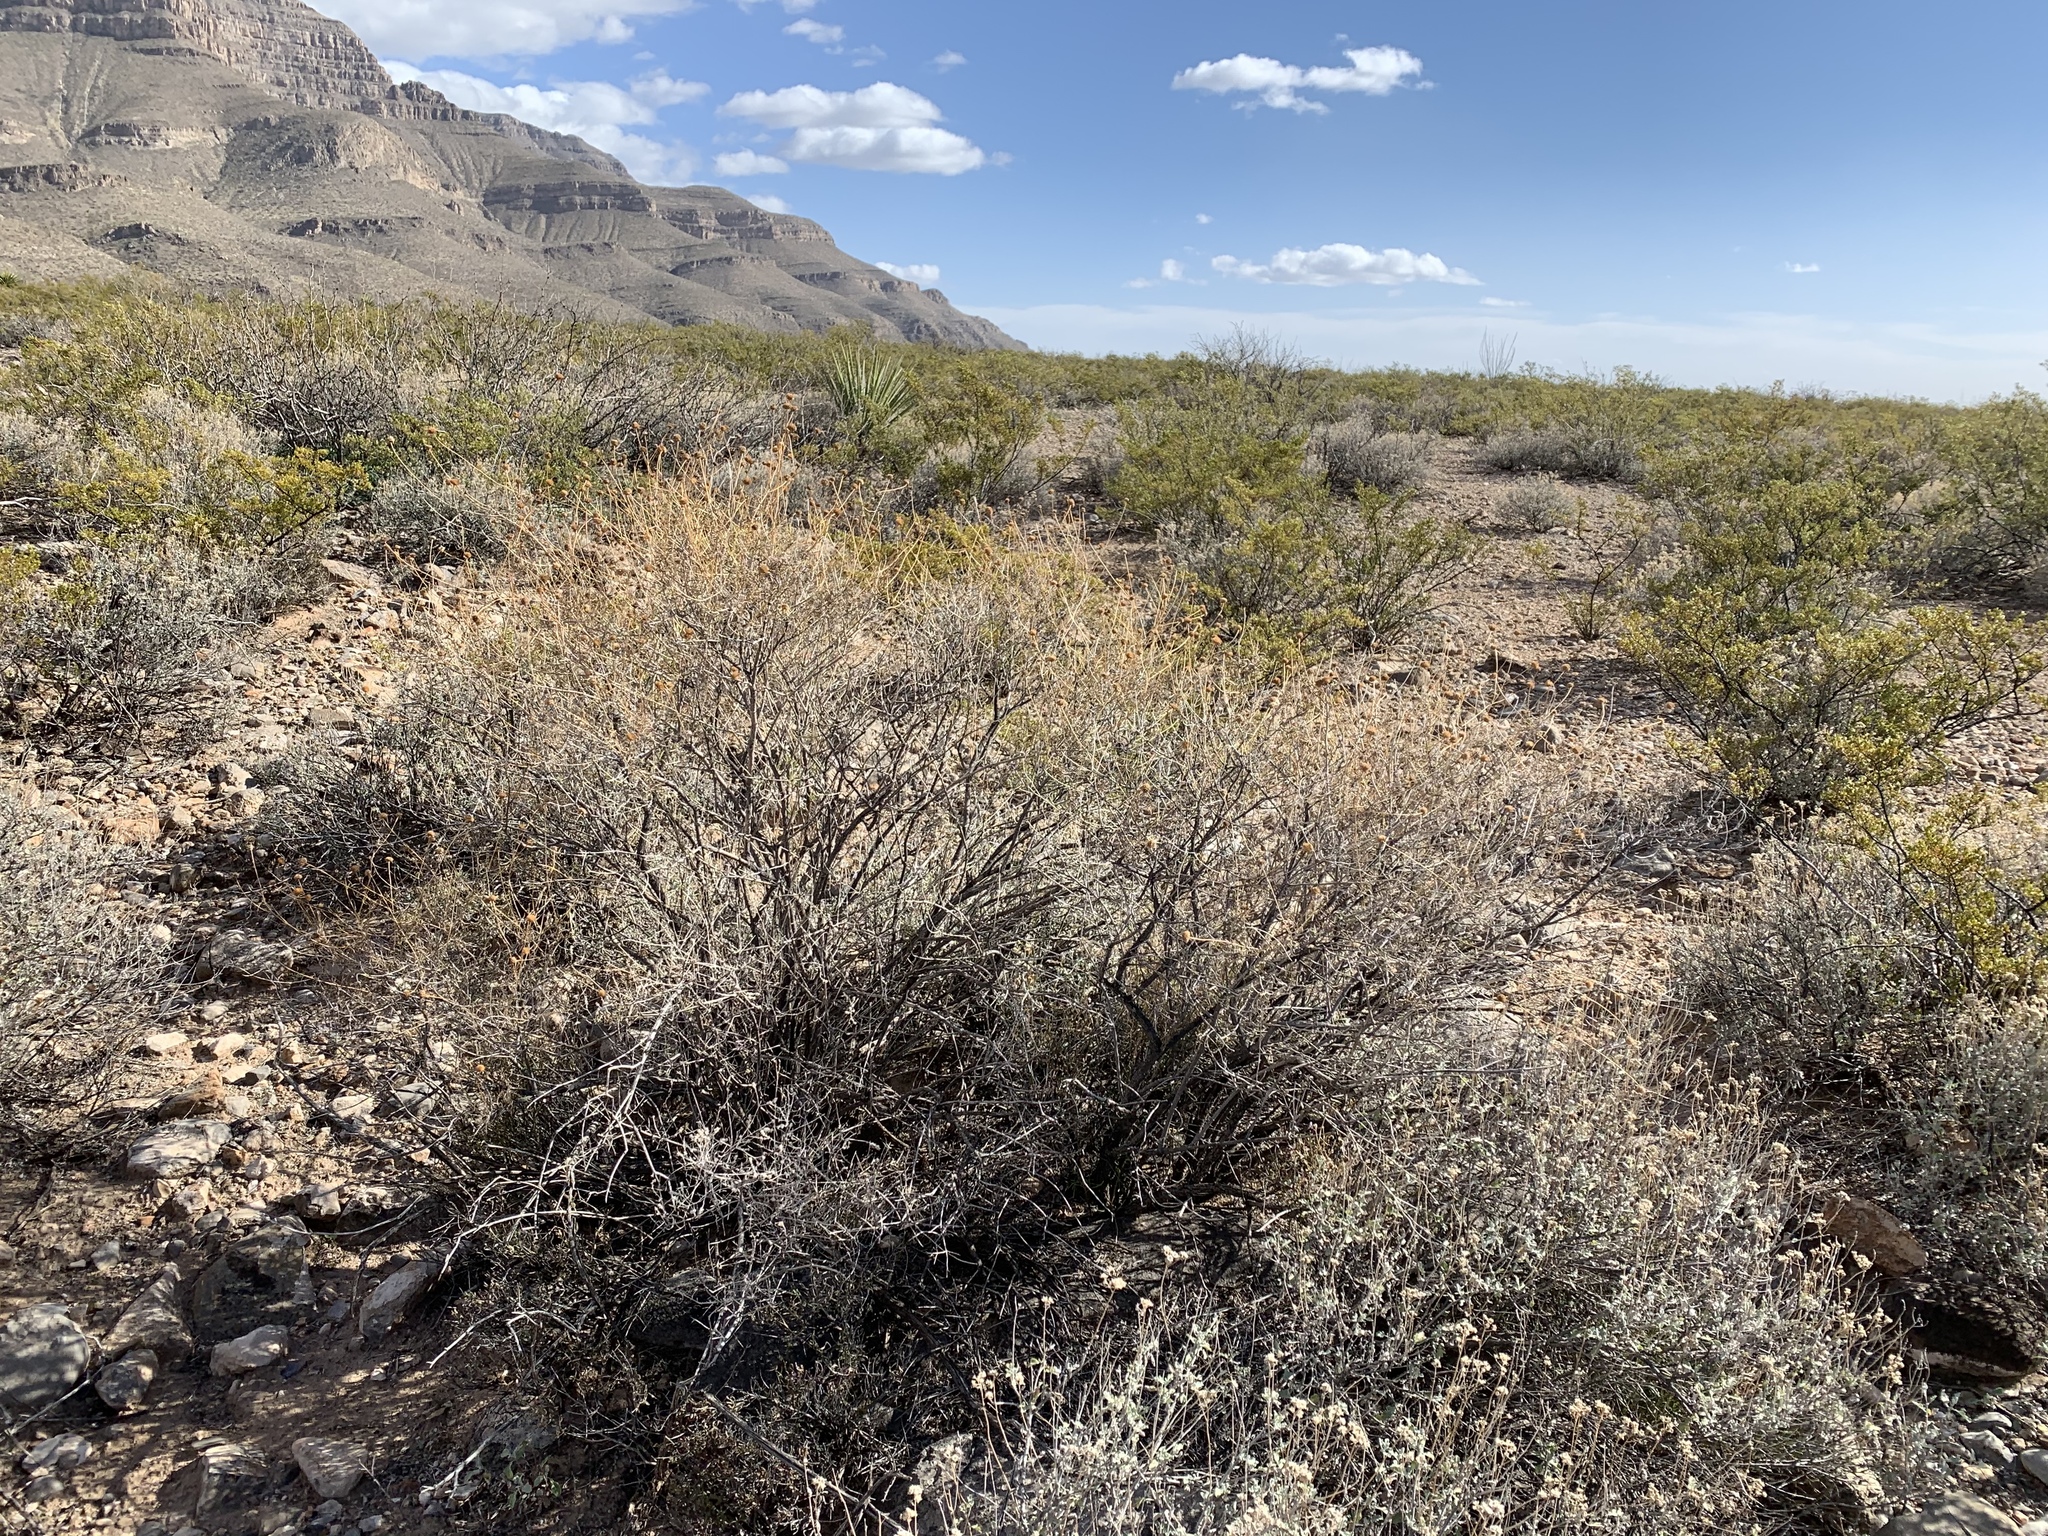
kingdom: Plantae
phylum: Tracheophyta
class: Magnoliopsida
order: Asterales
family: Asteraceae
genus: Sidneya
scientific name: Sidneya tenuifolia
